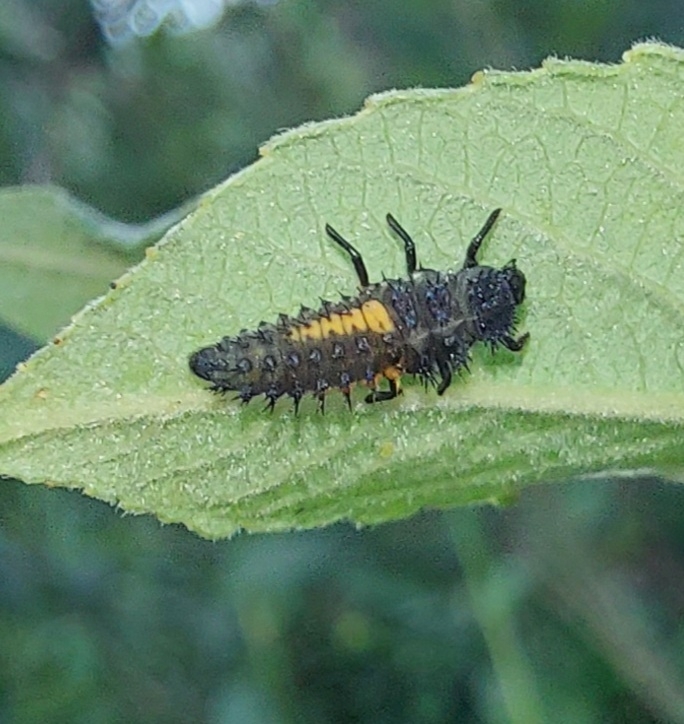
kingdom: Animalia
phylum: Arthropoda
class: Insecta
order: Coleoptera
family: Coccinellidae
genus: Harmonia
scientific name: Harmonia axyridis
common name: Harlequin ladybird
